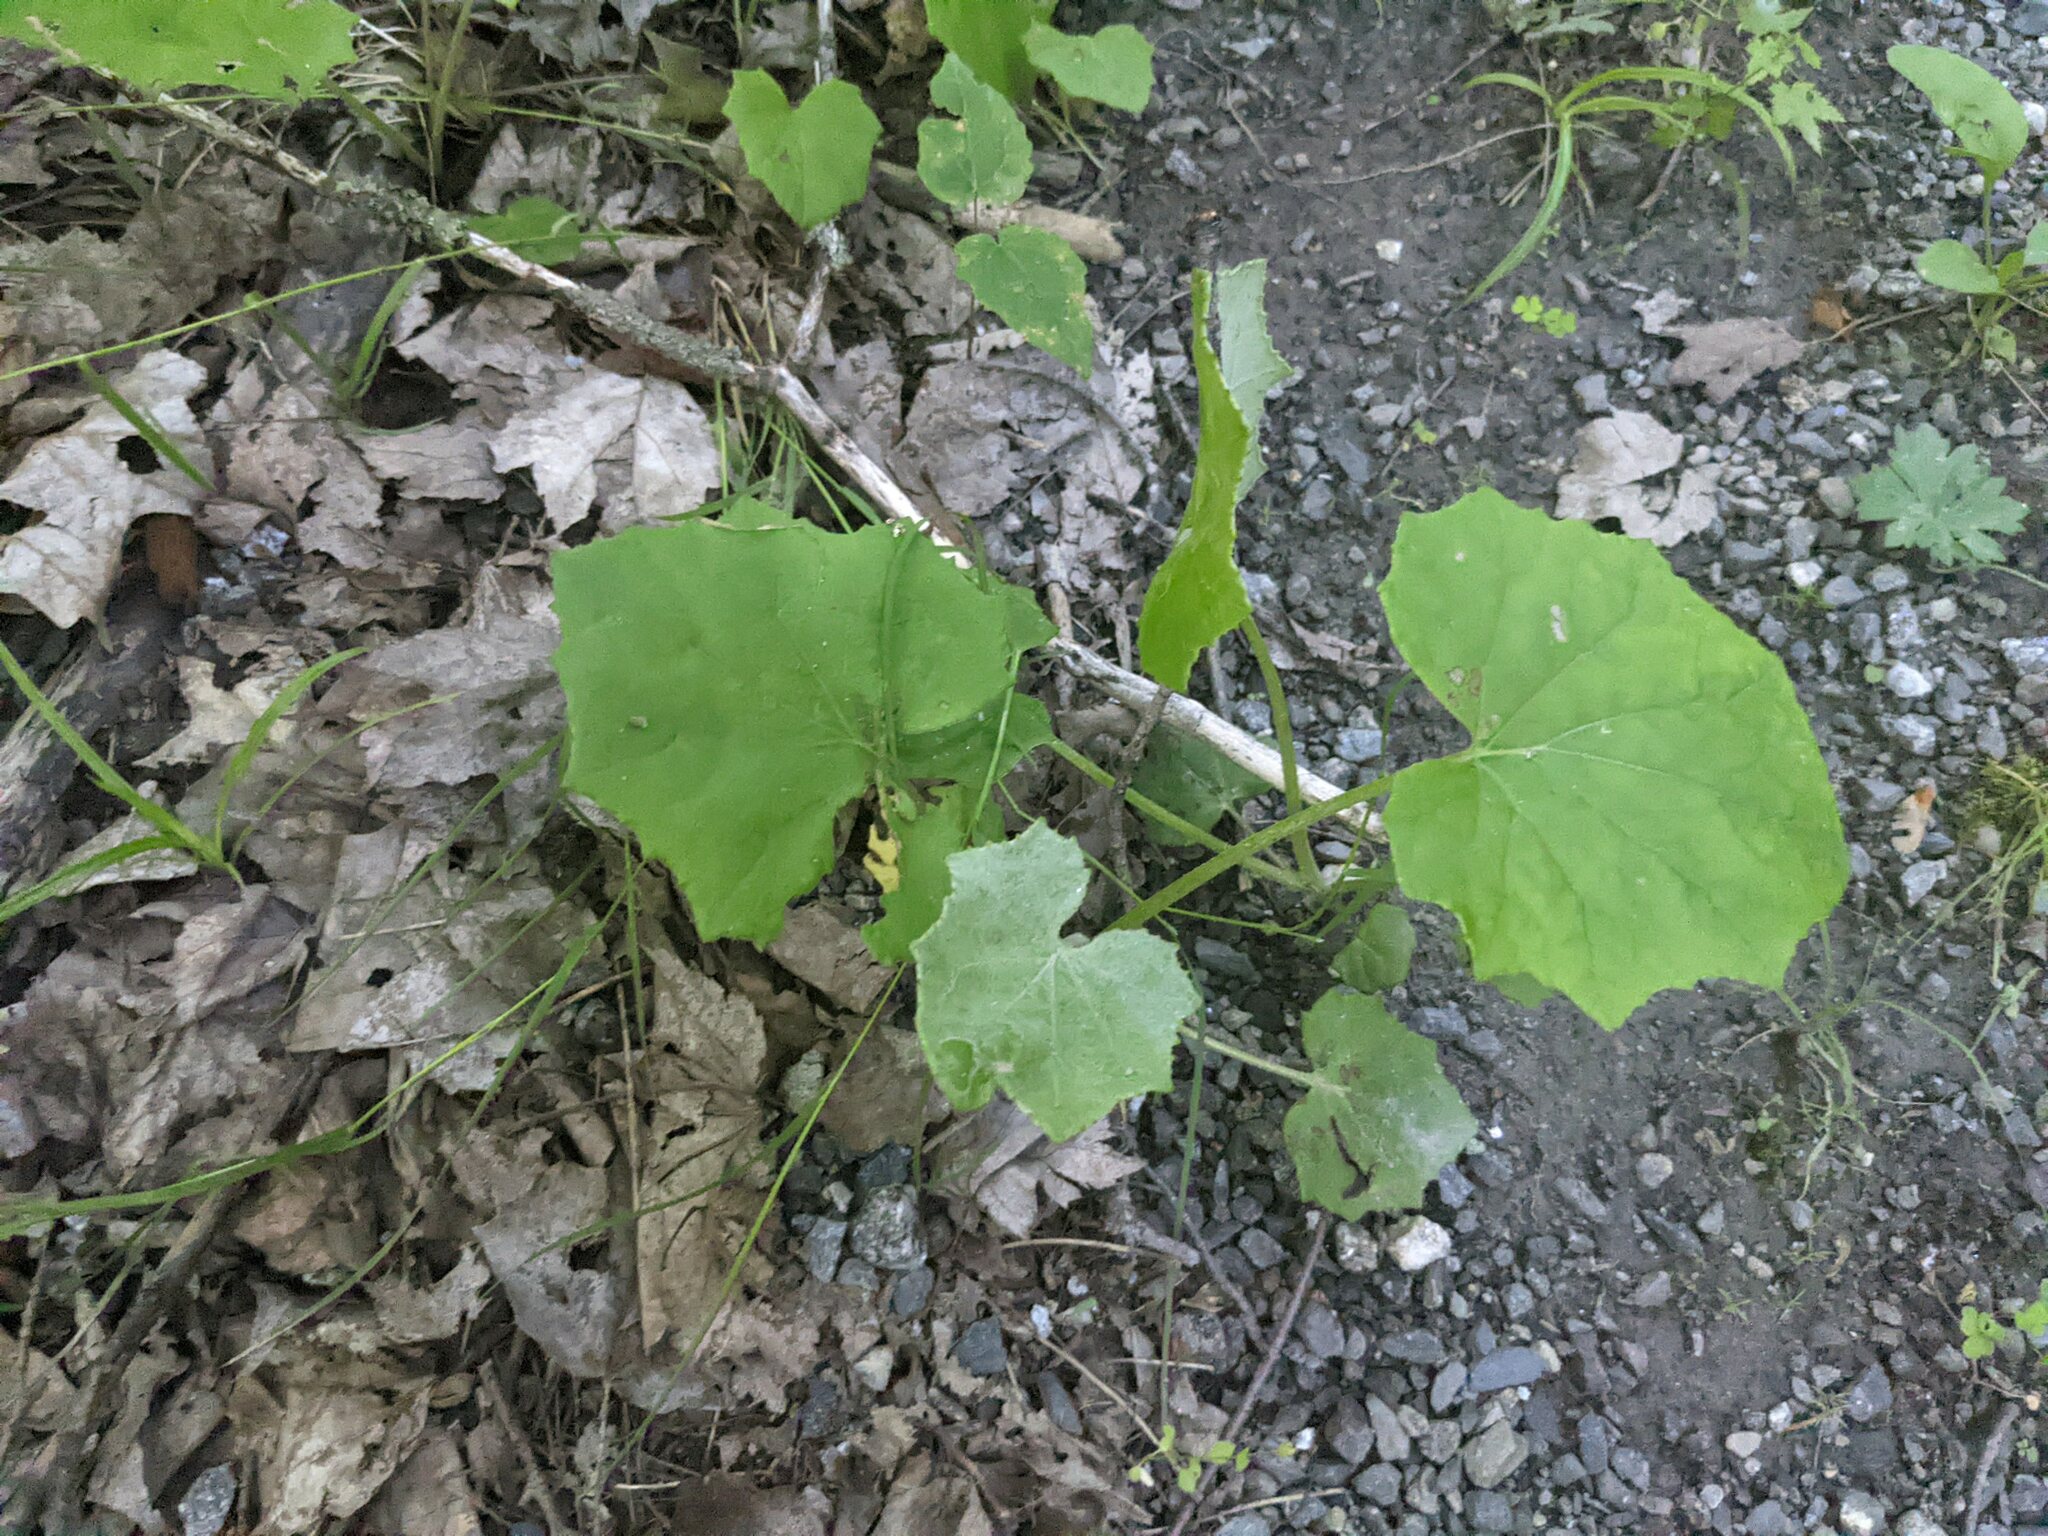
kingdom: Plantae
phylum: Tracheophyta
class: Magnoliopsida
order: Asterales
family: Asteraceae
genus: Tussilago
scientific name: Tussilago farfara
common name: Coltsfoot
